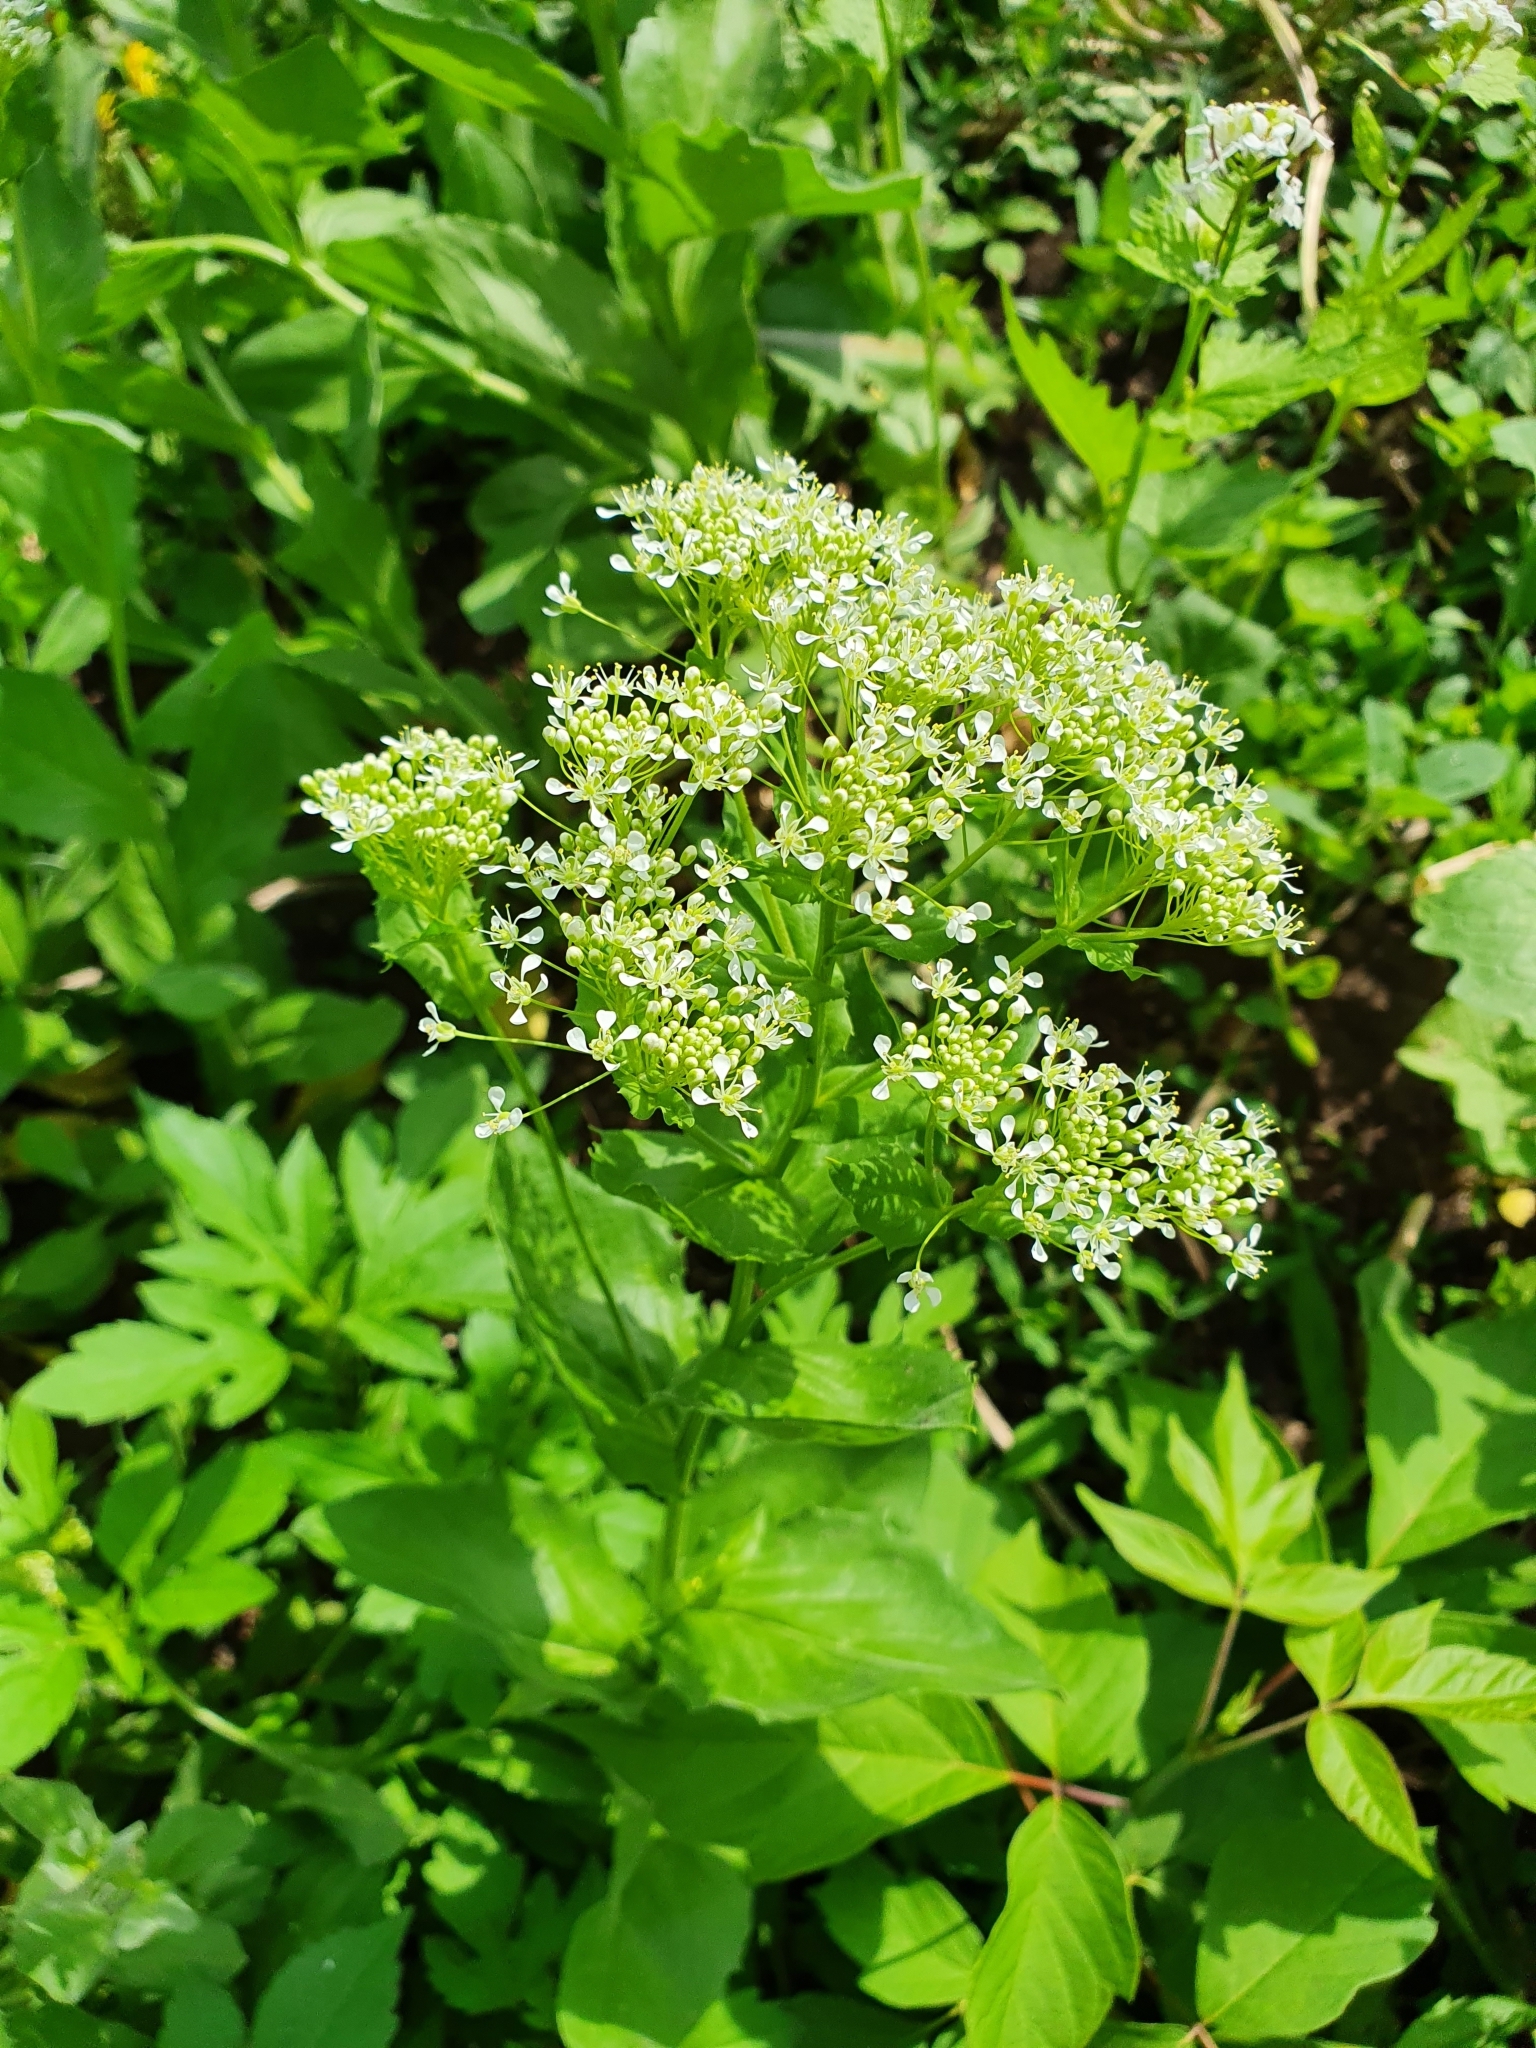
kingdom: Plantae
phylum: Tracheophyta
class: Magnoliopsida
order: Brassicales
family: Brassicaceae
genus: Lepidium
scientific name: Lepidium draba
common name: Hoary cress
